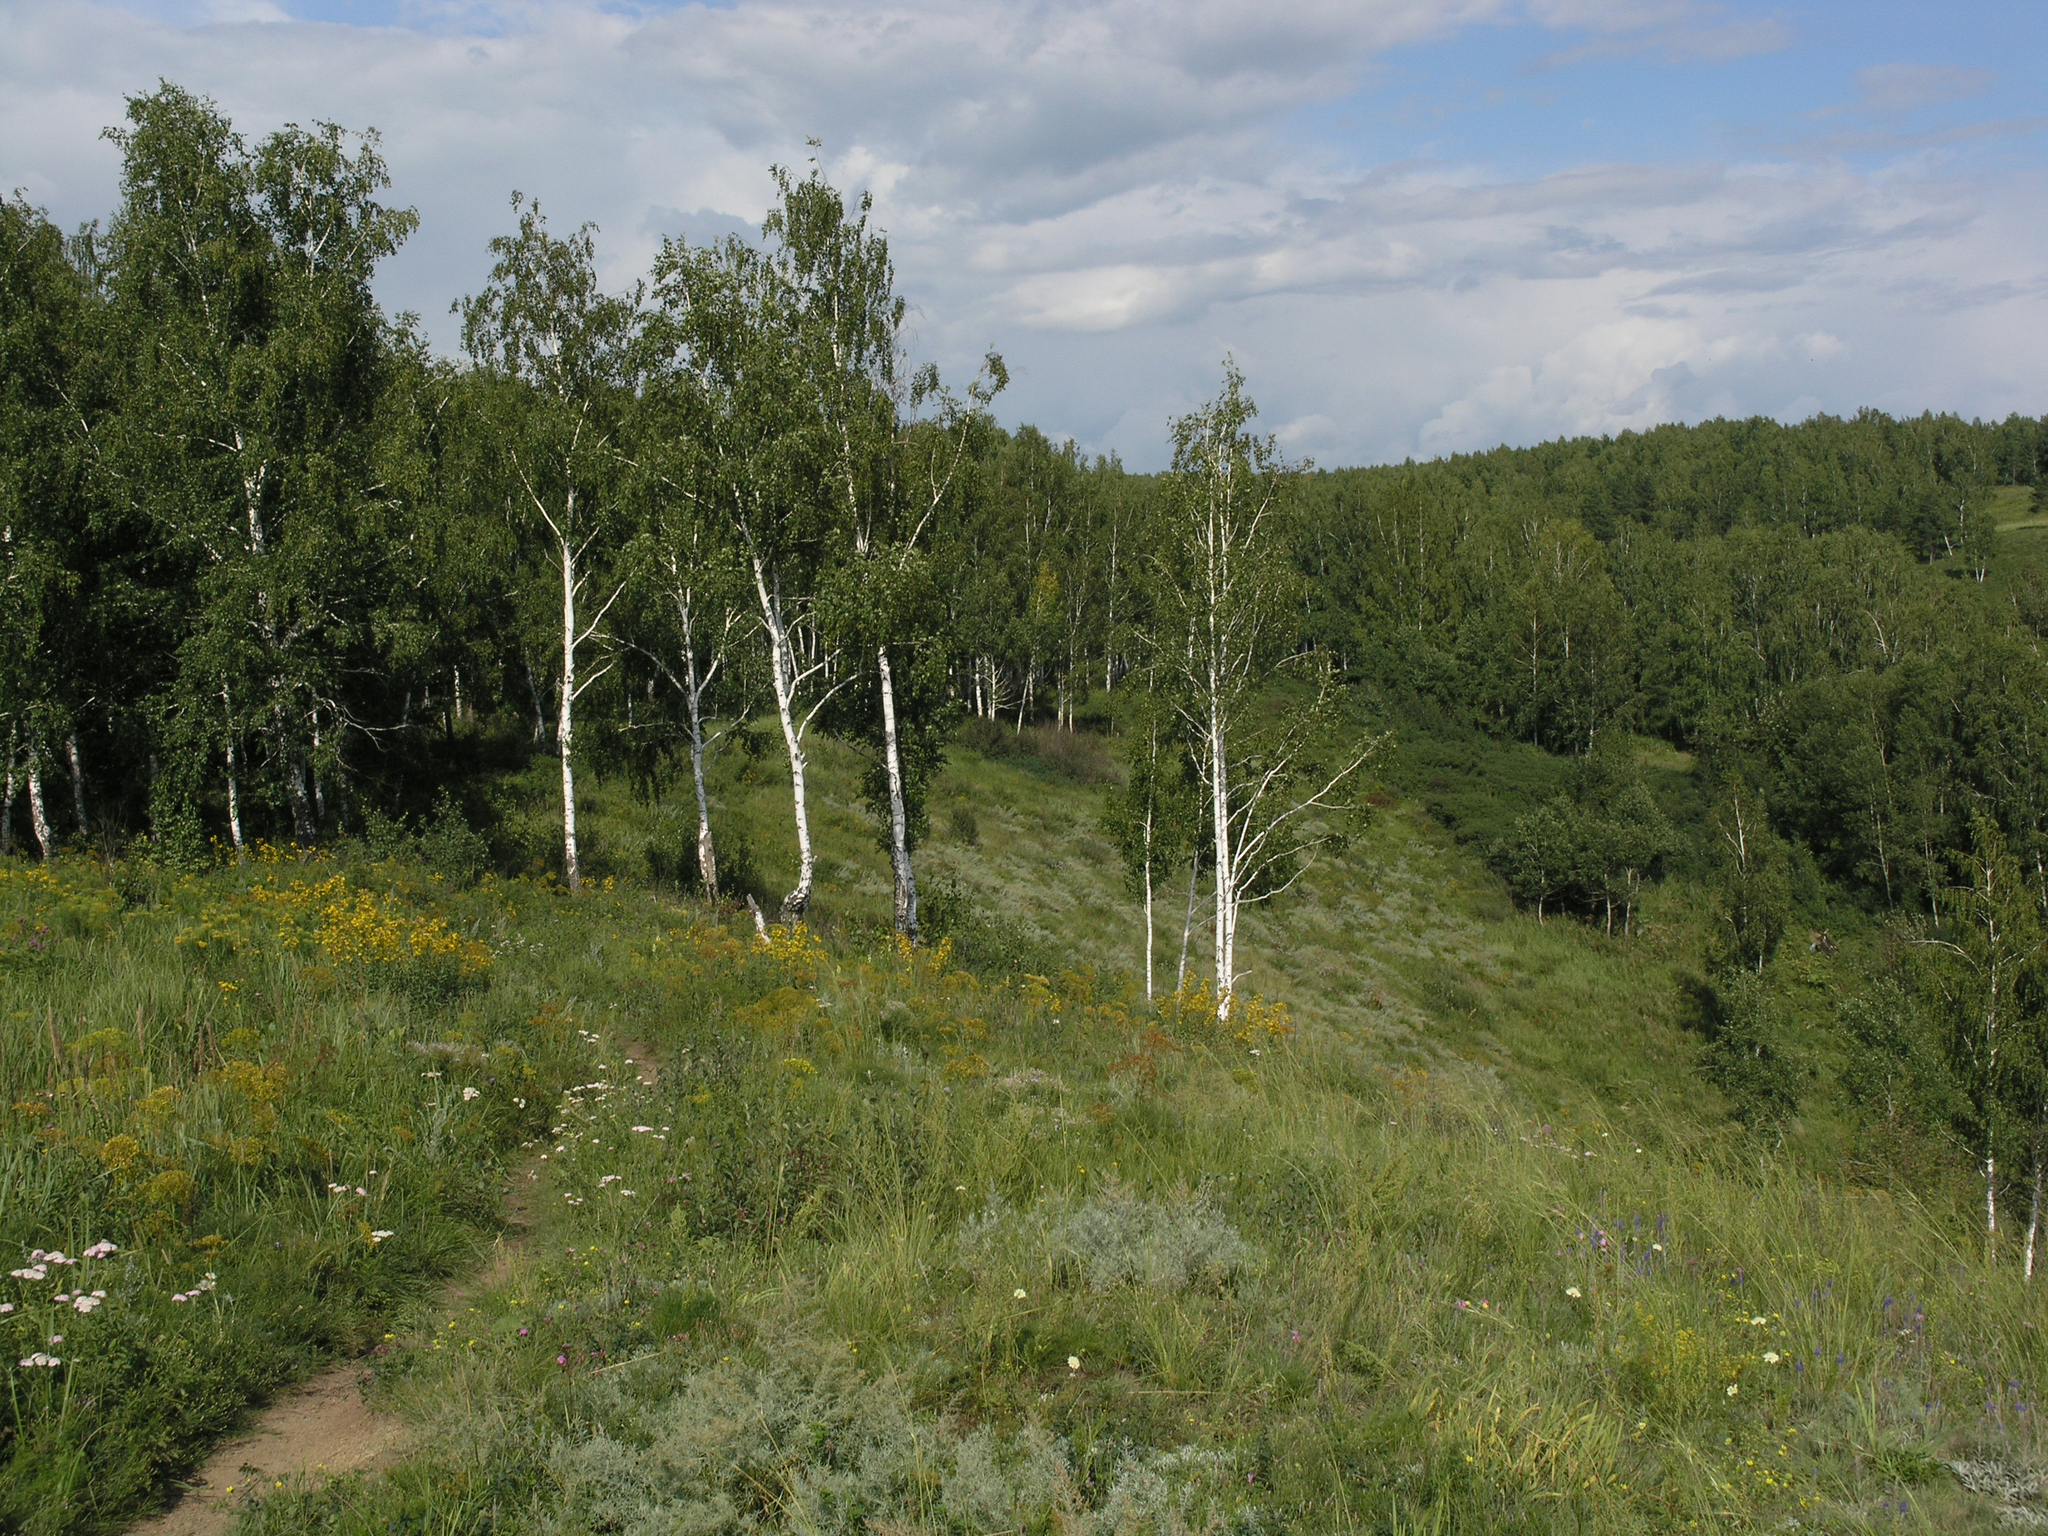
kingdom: Plantae
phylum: Tracheophyta
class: Magnoliopsida
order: Fagales
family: Betulaceae
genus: Betula
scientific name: Betula pendula
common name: Silver birch
